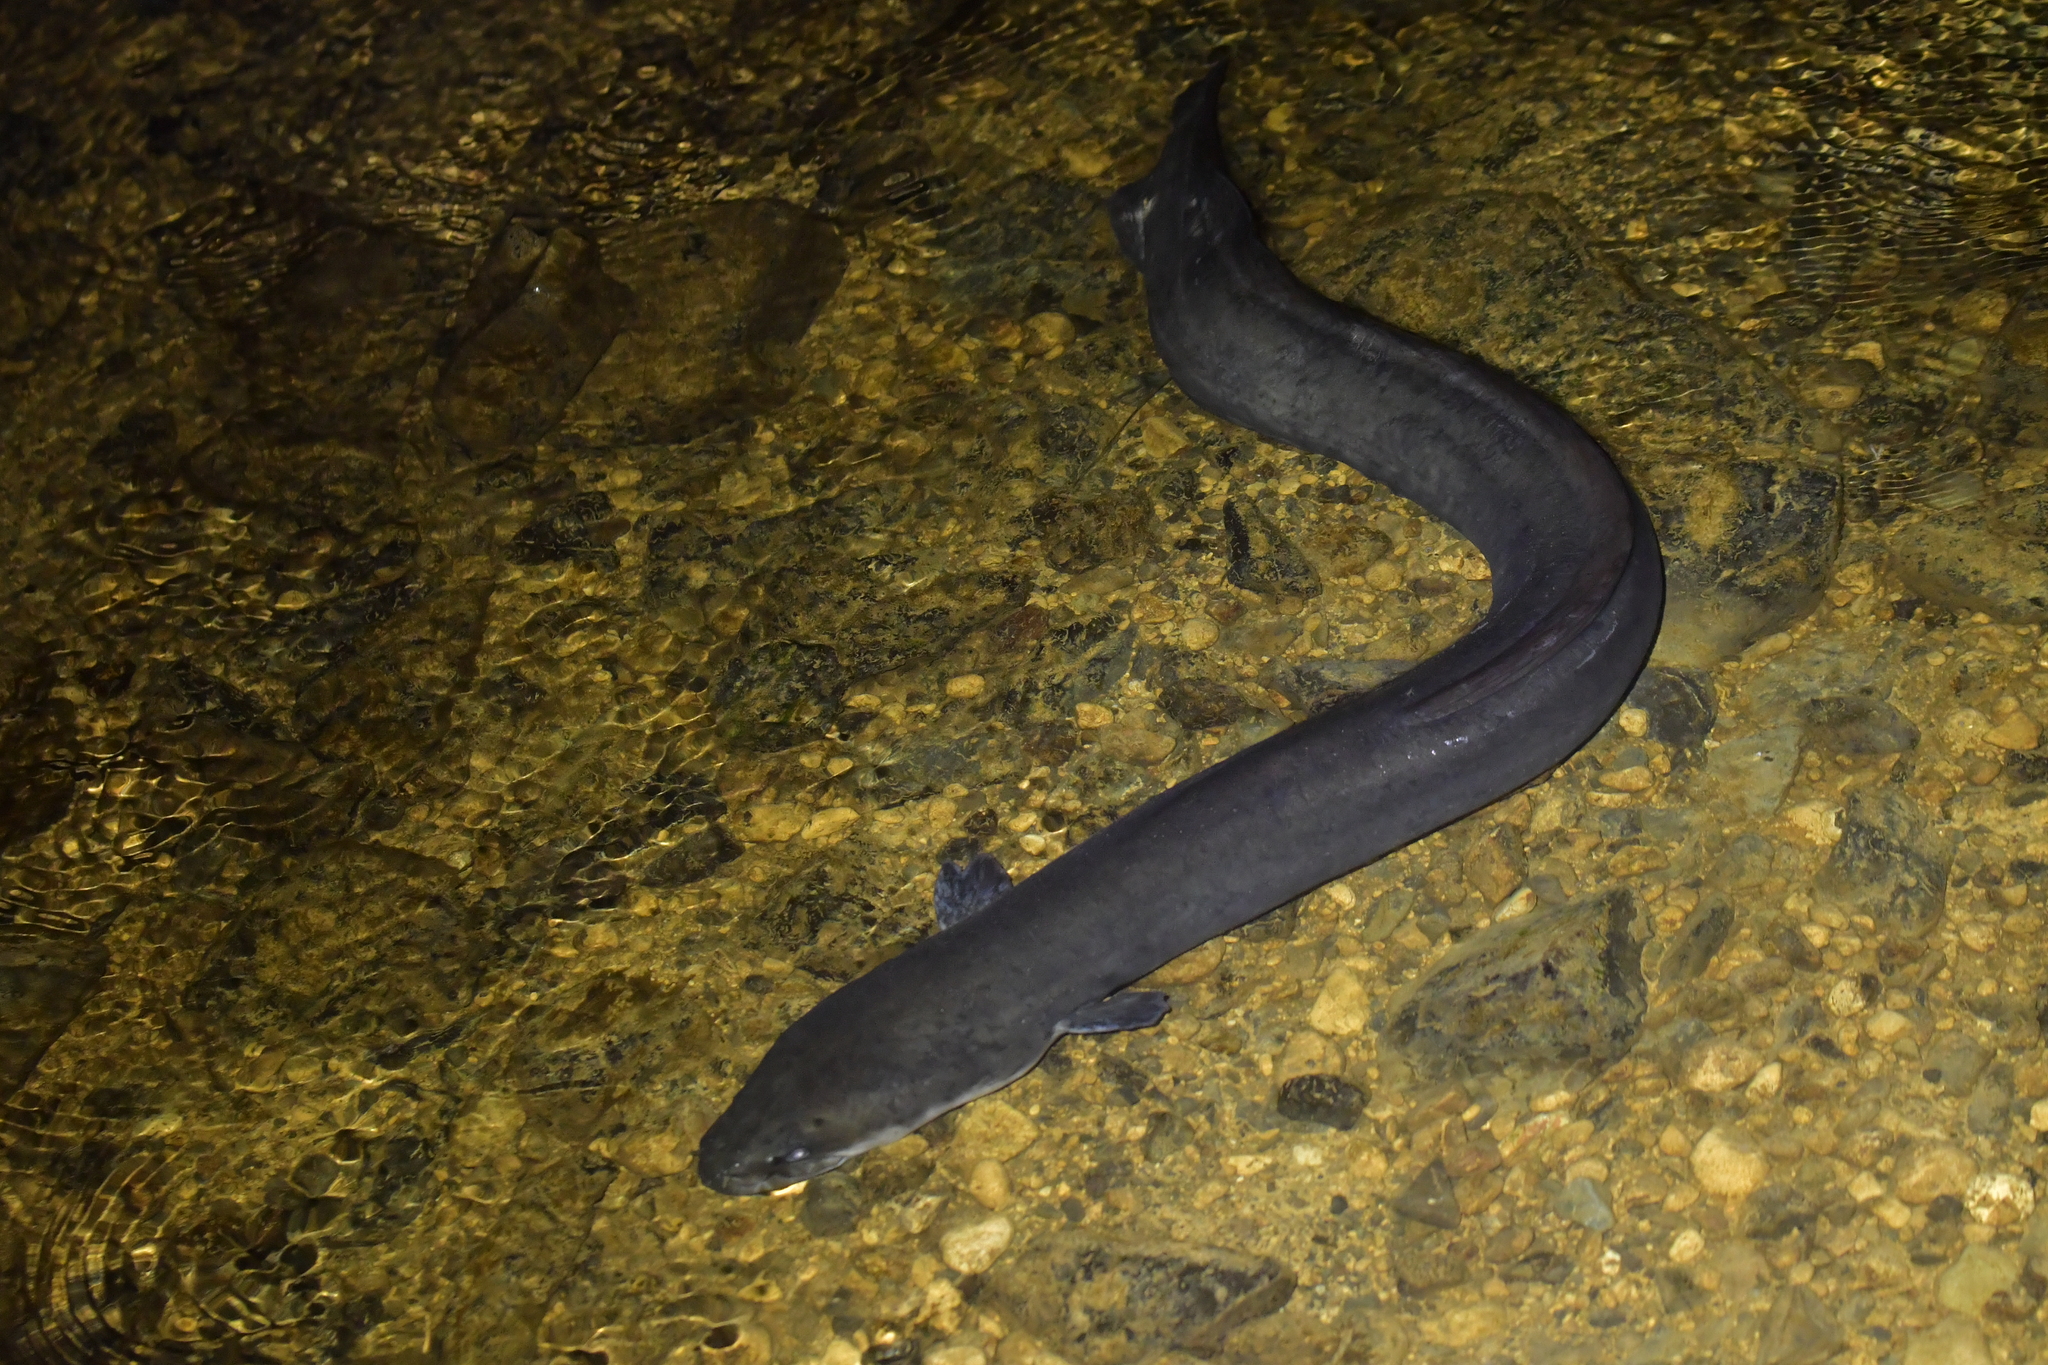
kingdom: Animalia
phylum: Chordata
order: Anguilliformes
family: Anguillidae
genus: Anguilla
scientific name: Anguilla dieffenbachii
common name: New zealand longfin eel
